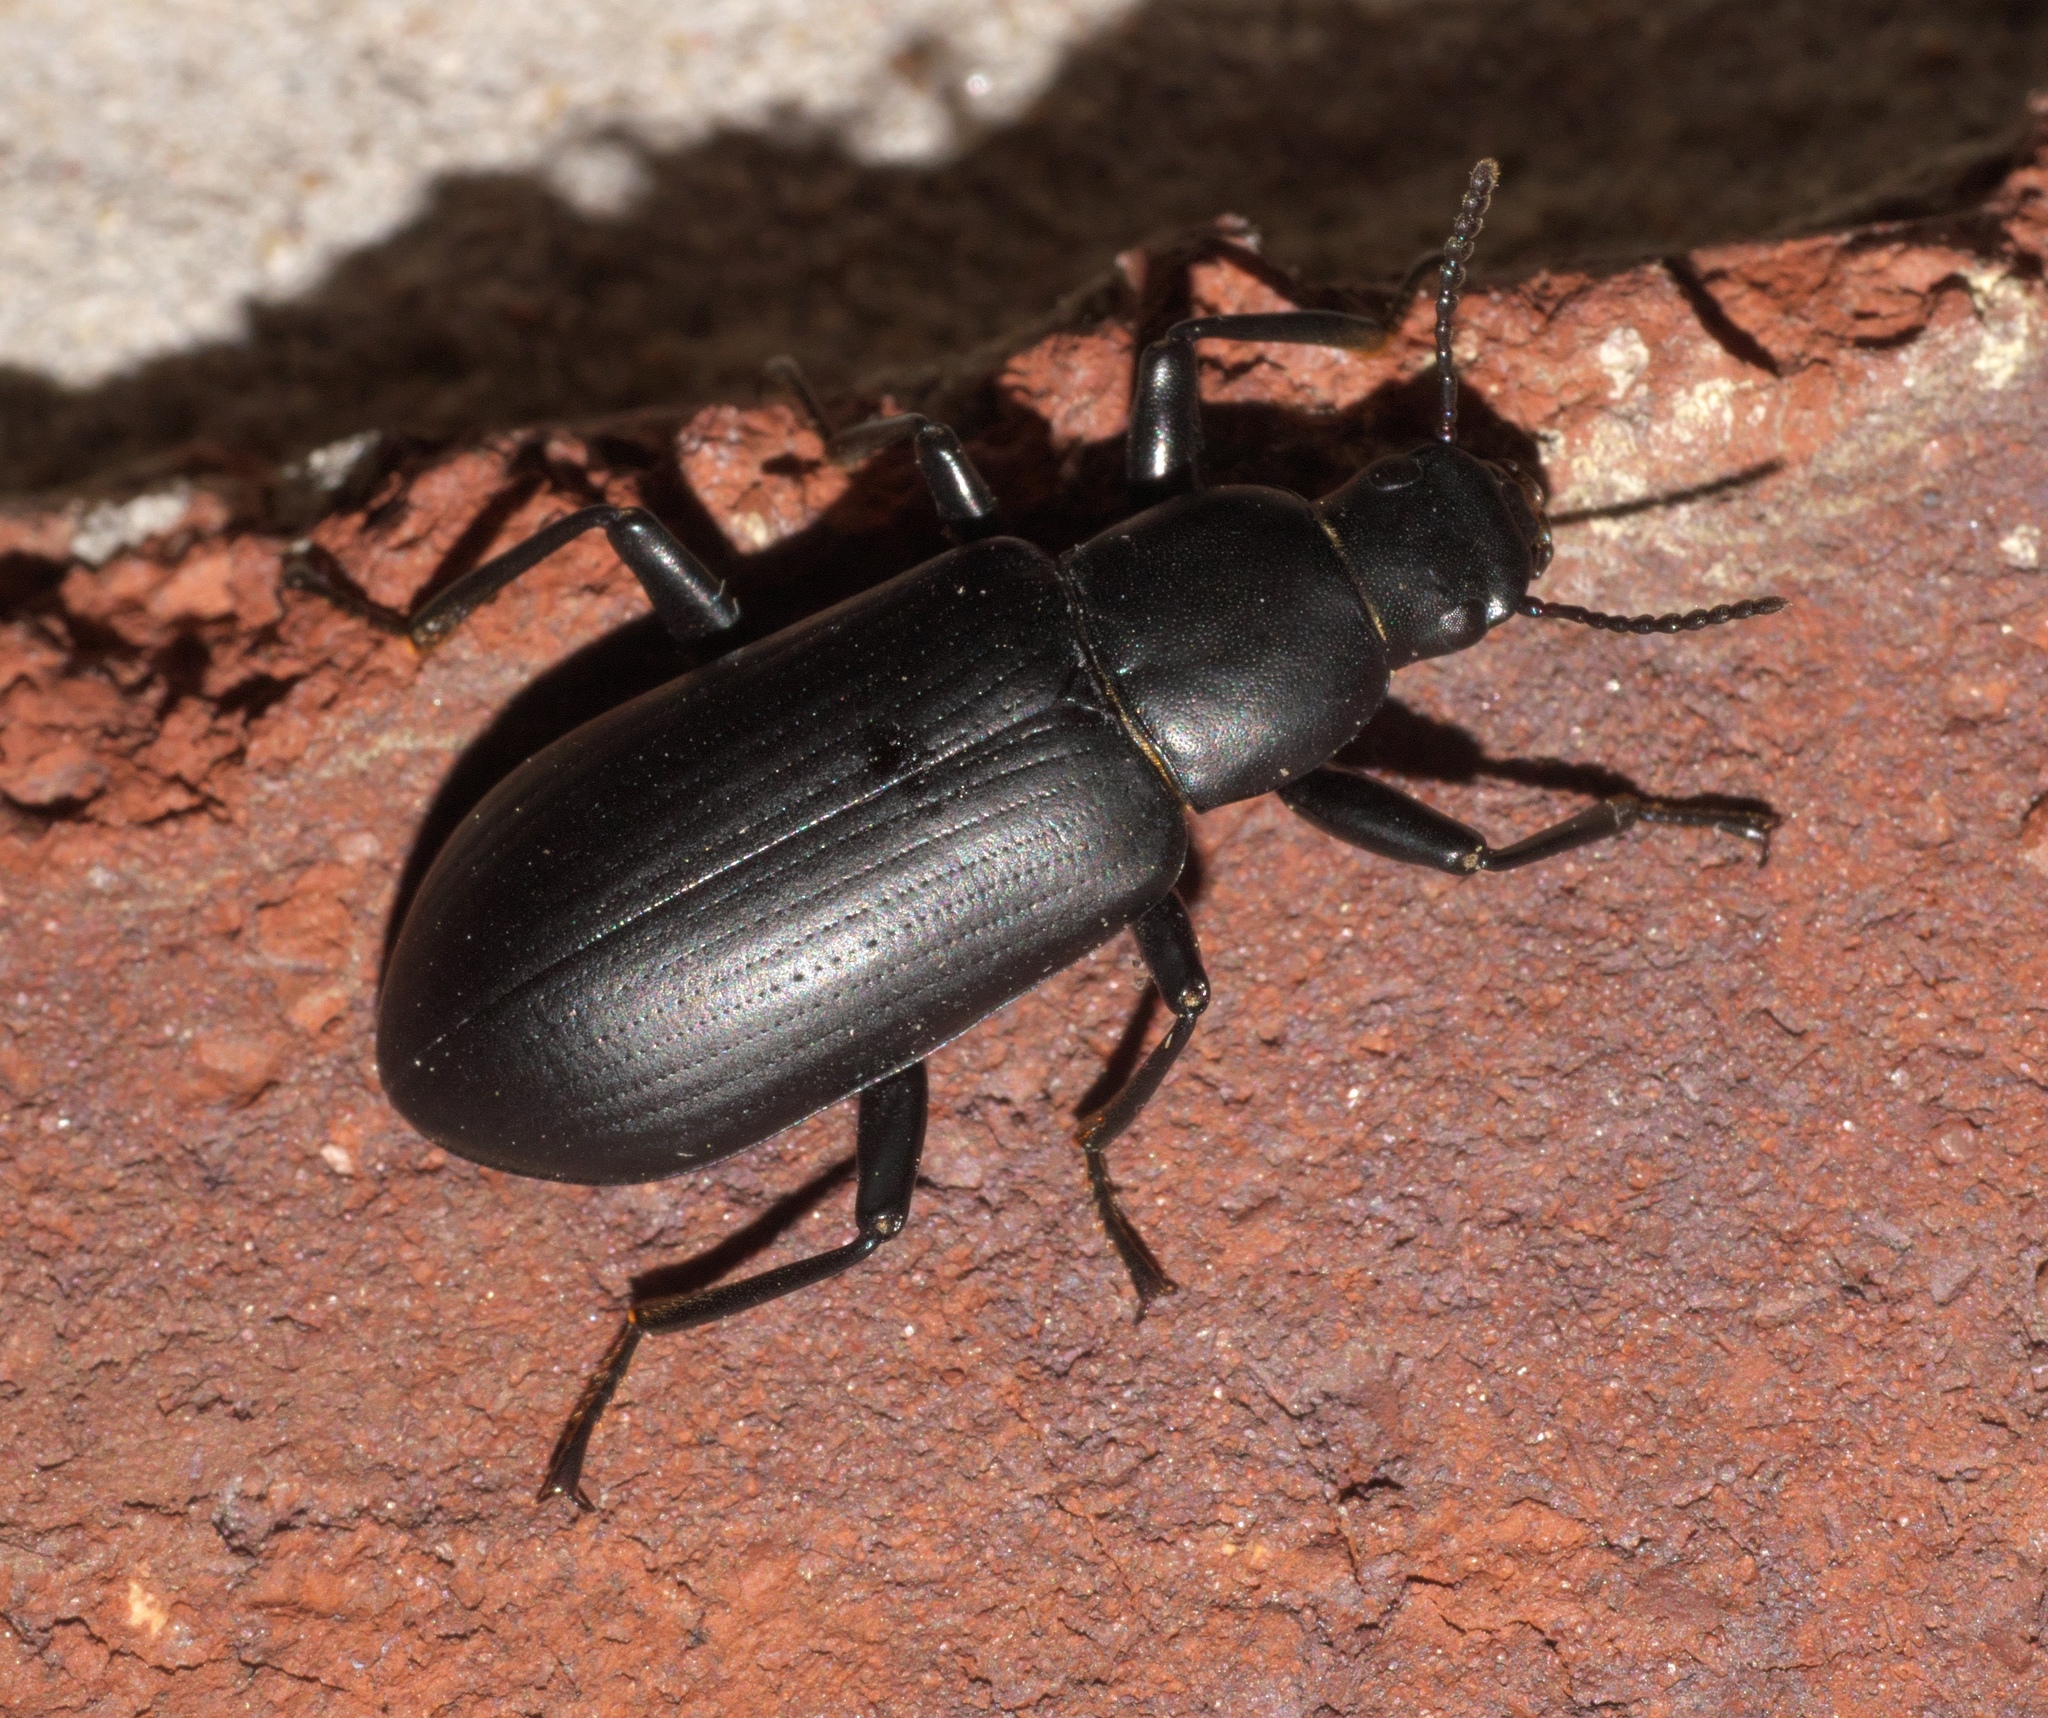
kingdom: Animalia
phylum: Arthropoda
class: Insecta
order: Coleoptera
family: Tenebrionidae
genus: Alobates
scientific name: Alobates pensylvanicus
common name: False mealworm beetle
